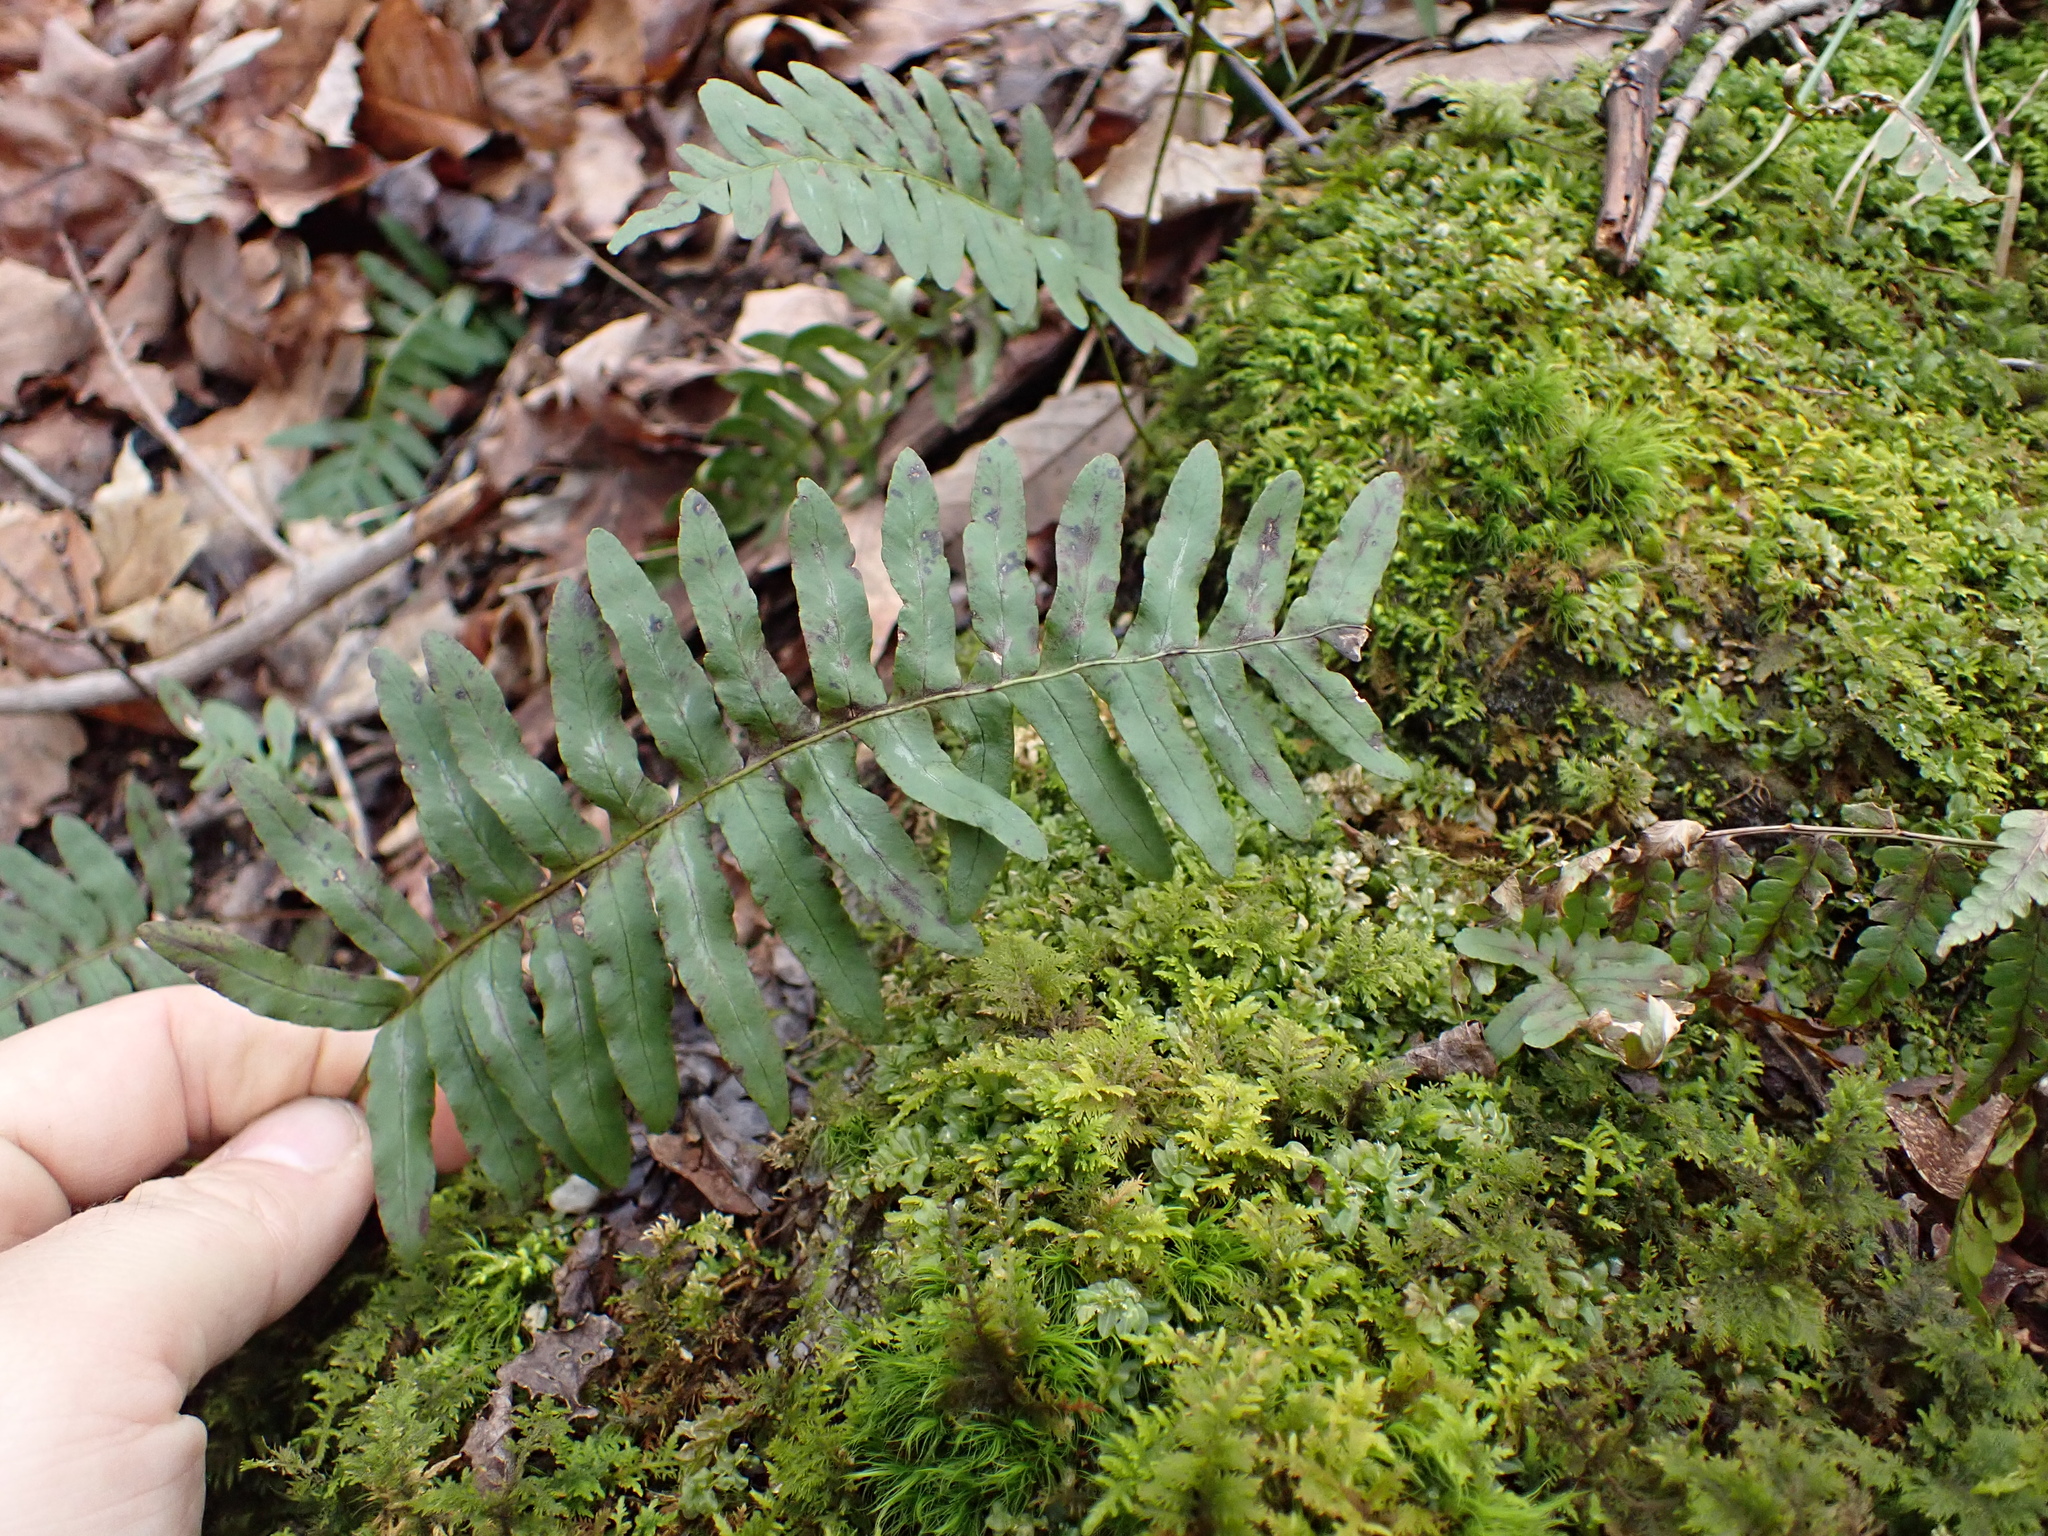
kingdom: Plantae
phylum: Tracheophyta
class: Polypodiopsida
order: Polypodiales
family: Polypodiaceae
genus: Polypodium
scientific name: Polypodium virginianum
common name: American wall fern
